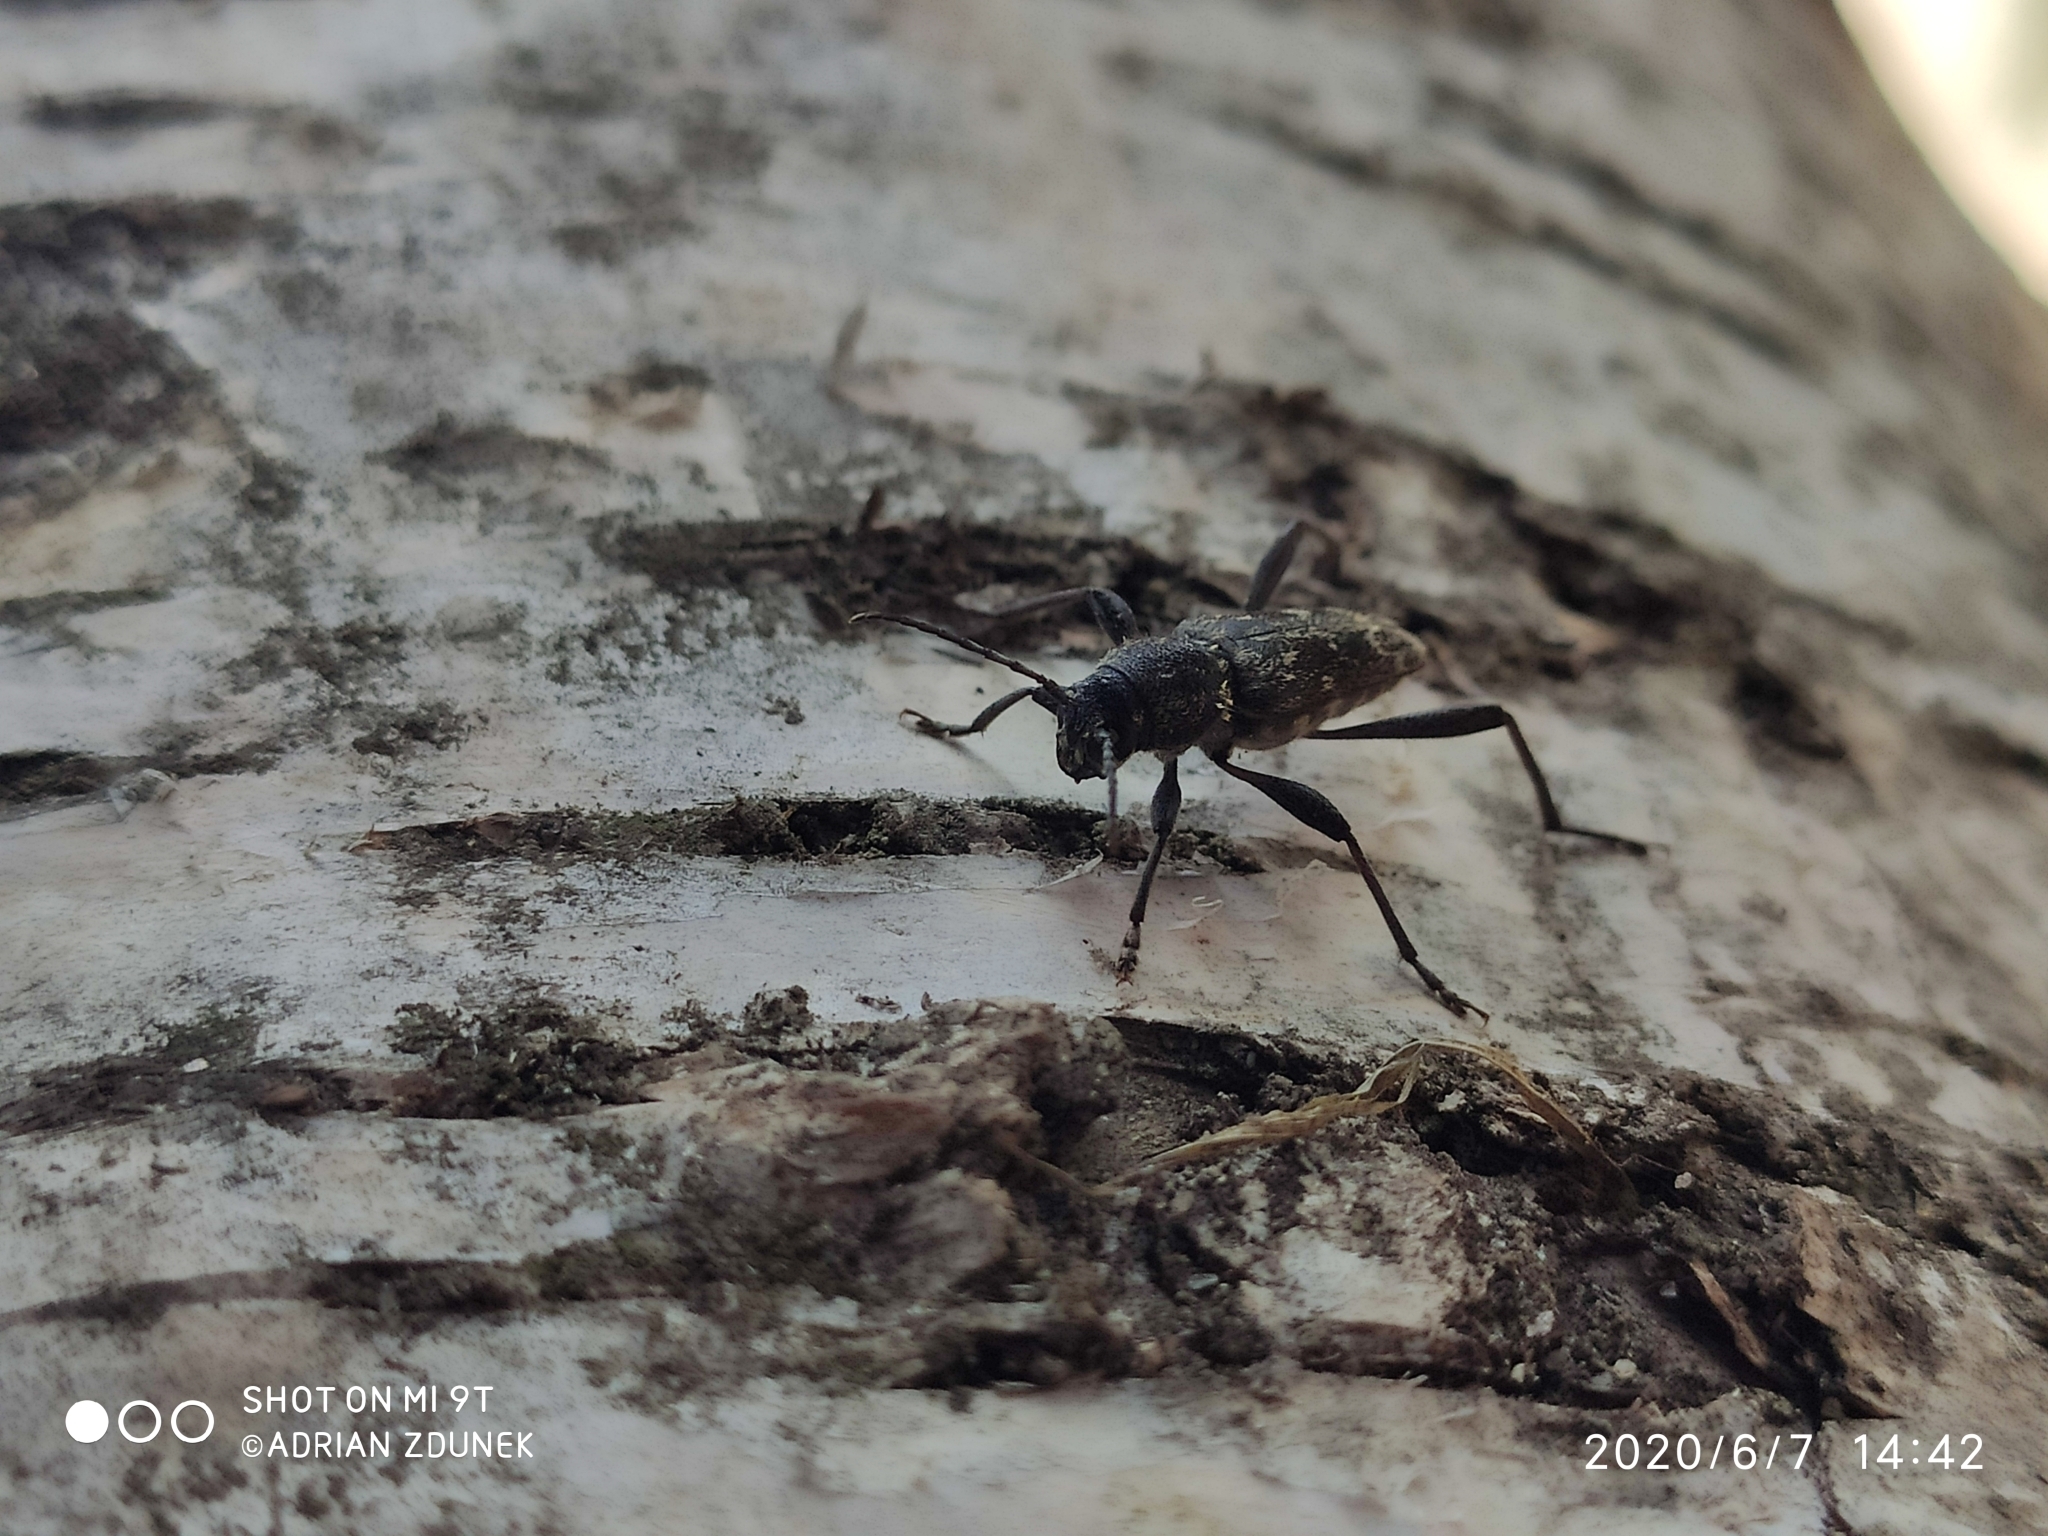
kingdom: Animalia
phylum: Arthropoda
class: Insecta
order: Coleoptera
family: Cerambycidae
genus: Xylotrechus
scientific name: Xylotrechus rusticus
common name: Grey tiger long-horned beetle
